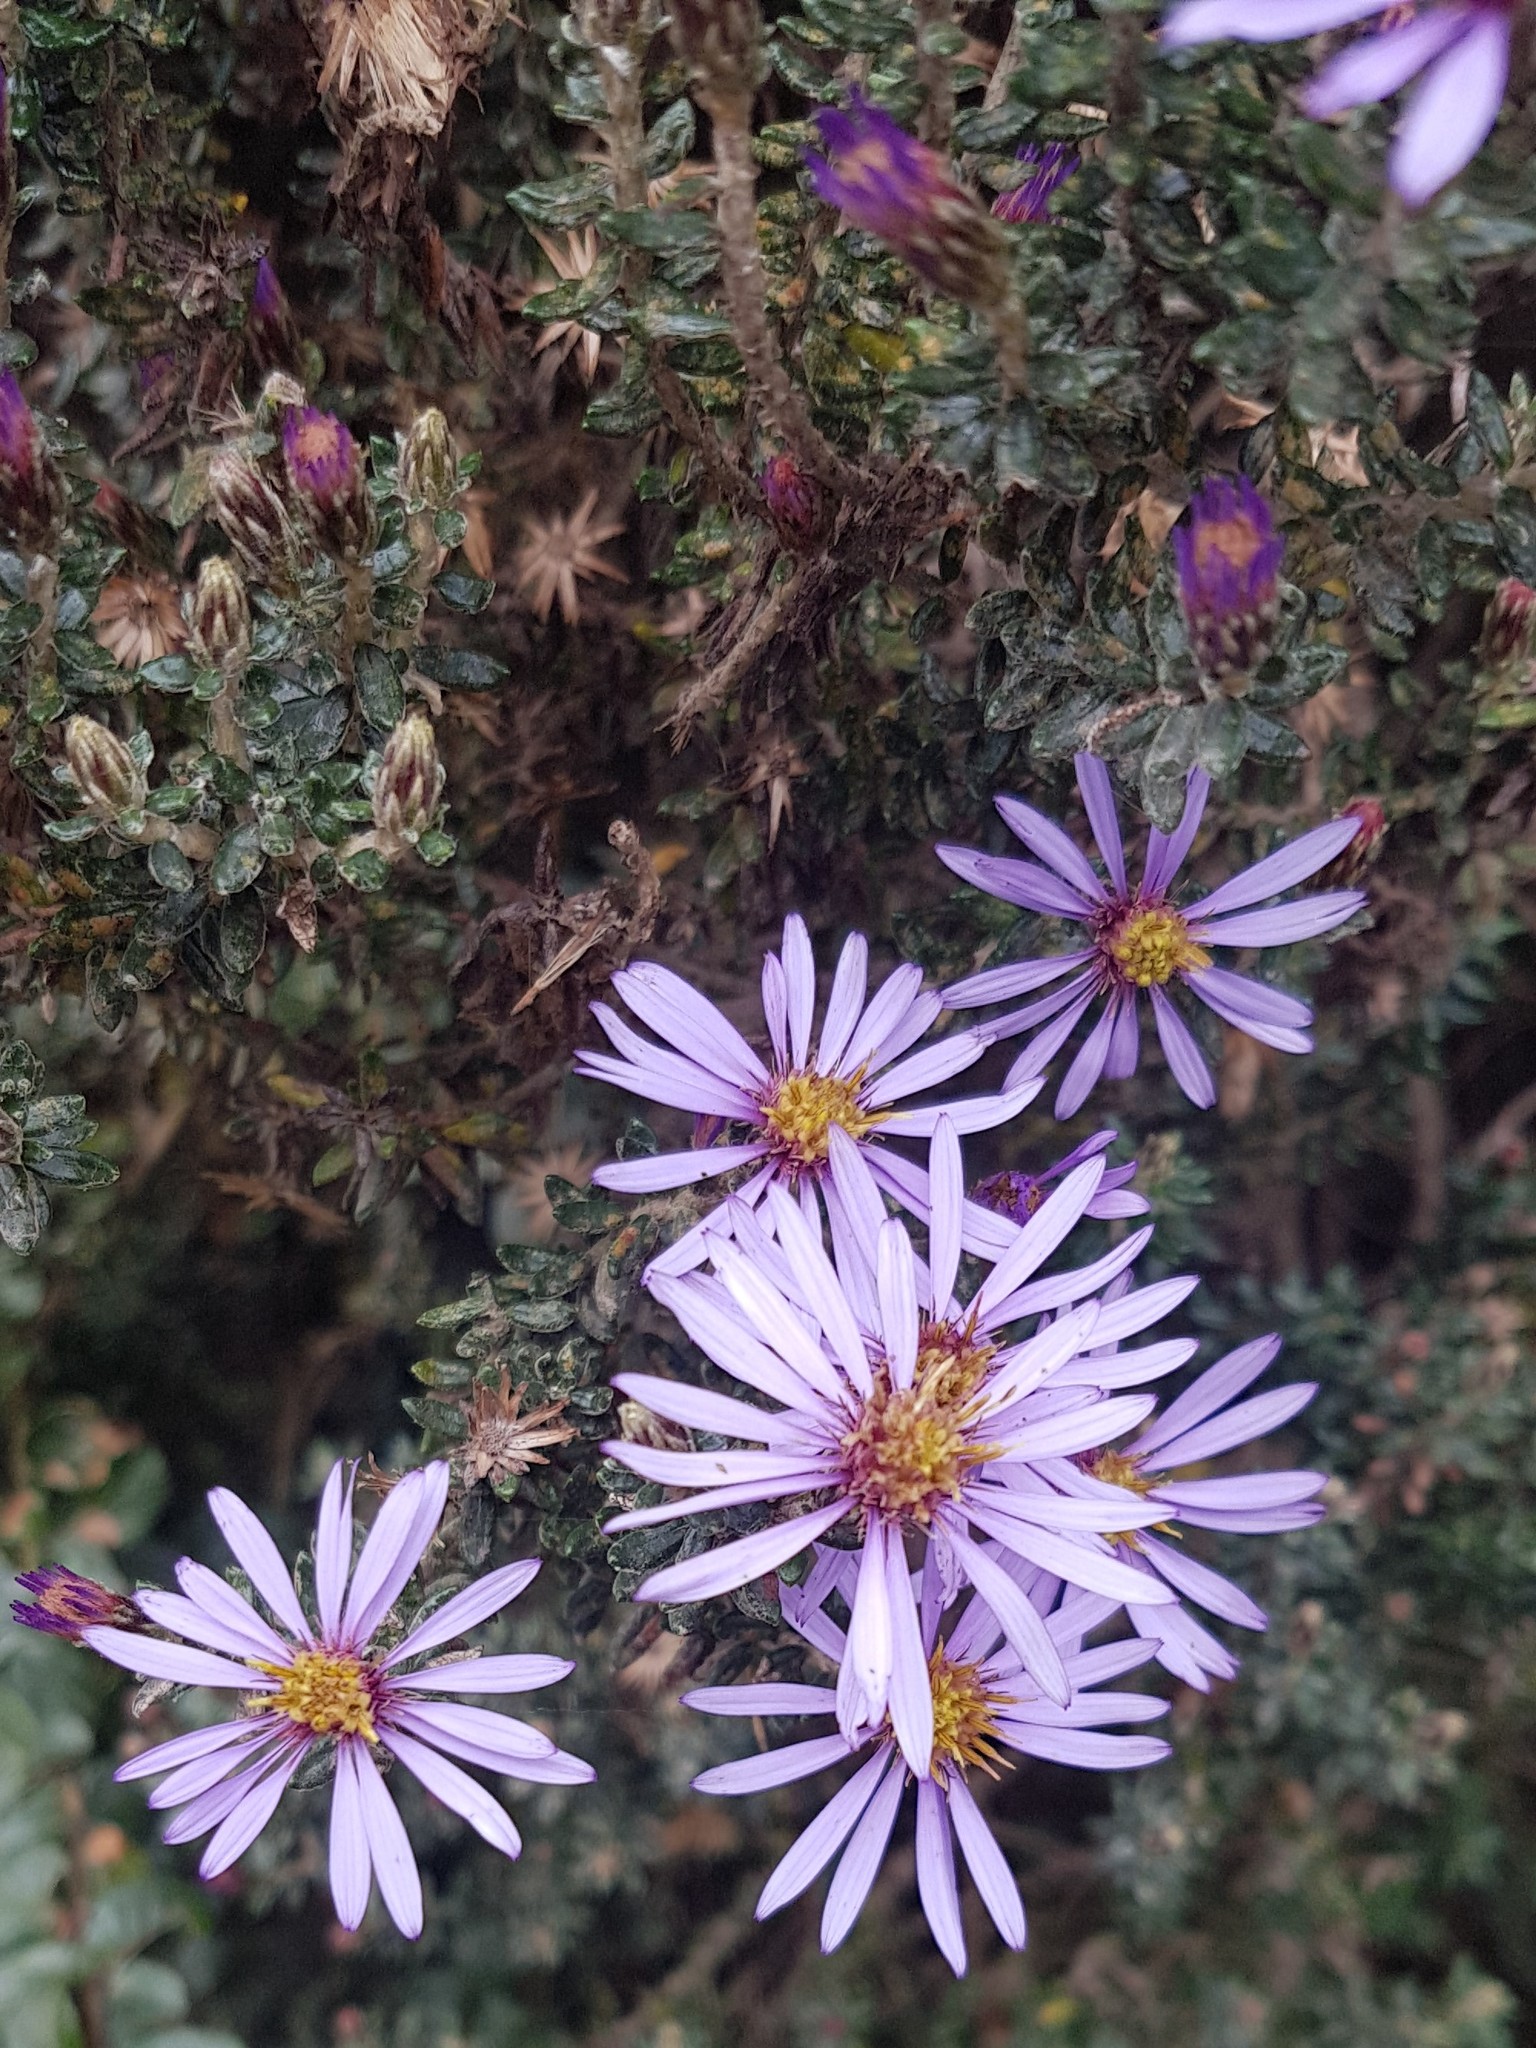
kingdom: Plantae
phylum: Tracheophyta
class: Magnoliopsida
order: Asterales
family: Asteraceae
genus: Diplostephium
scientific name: Diplostephium hartwegii
